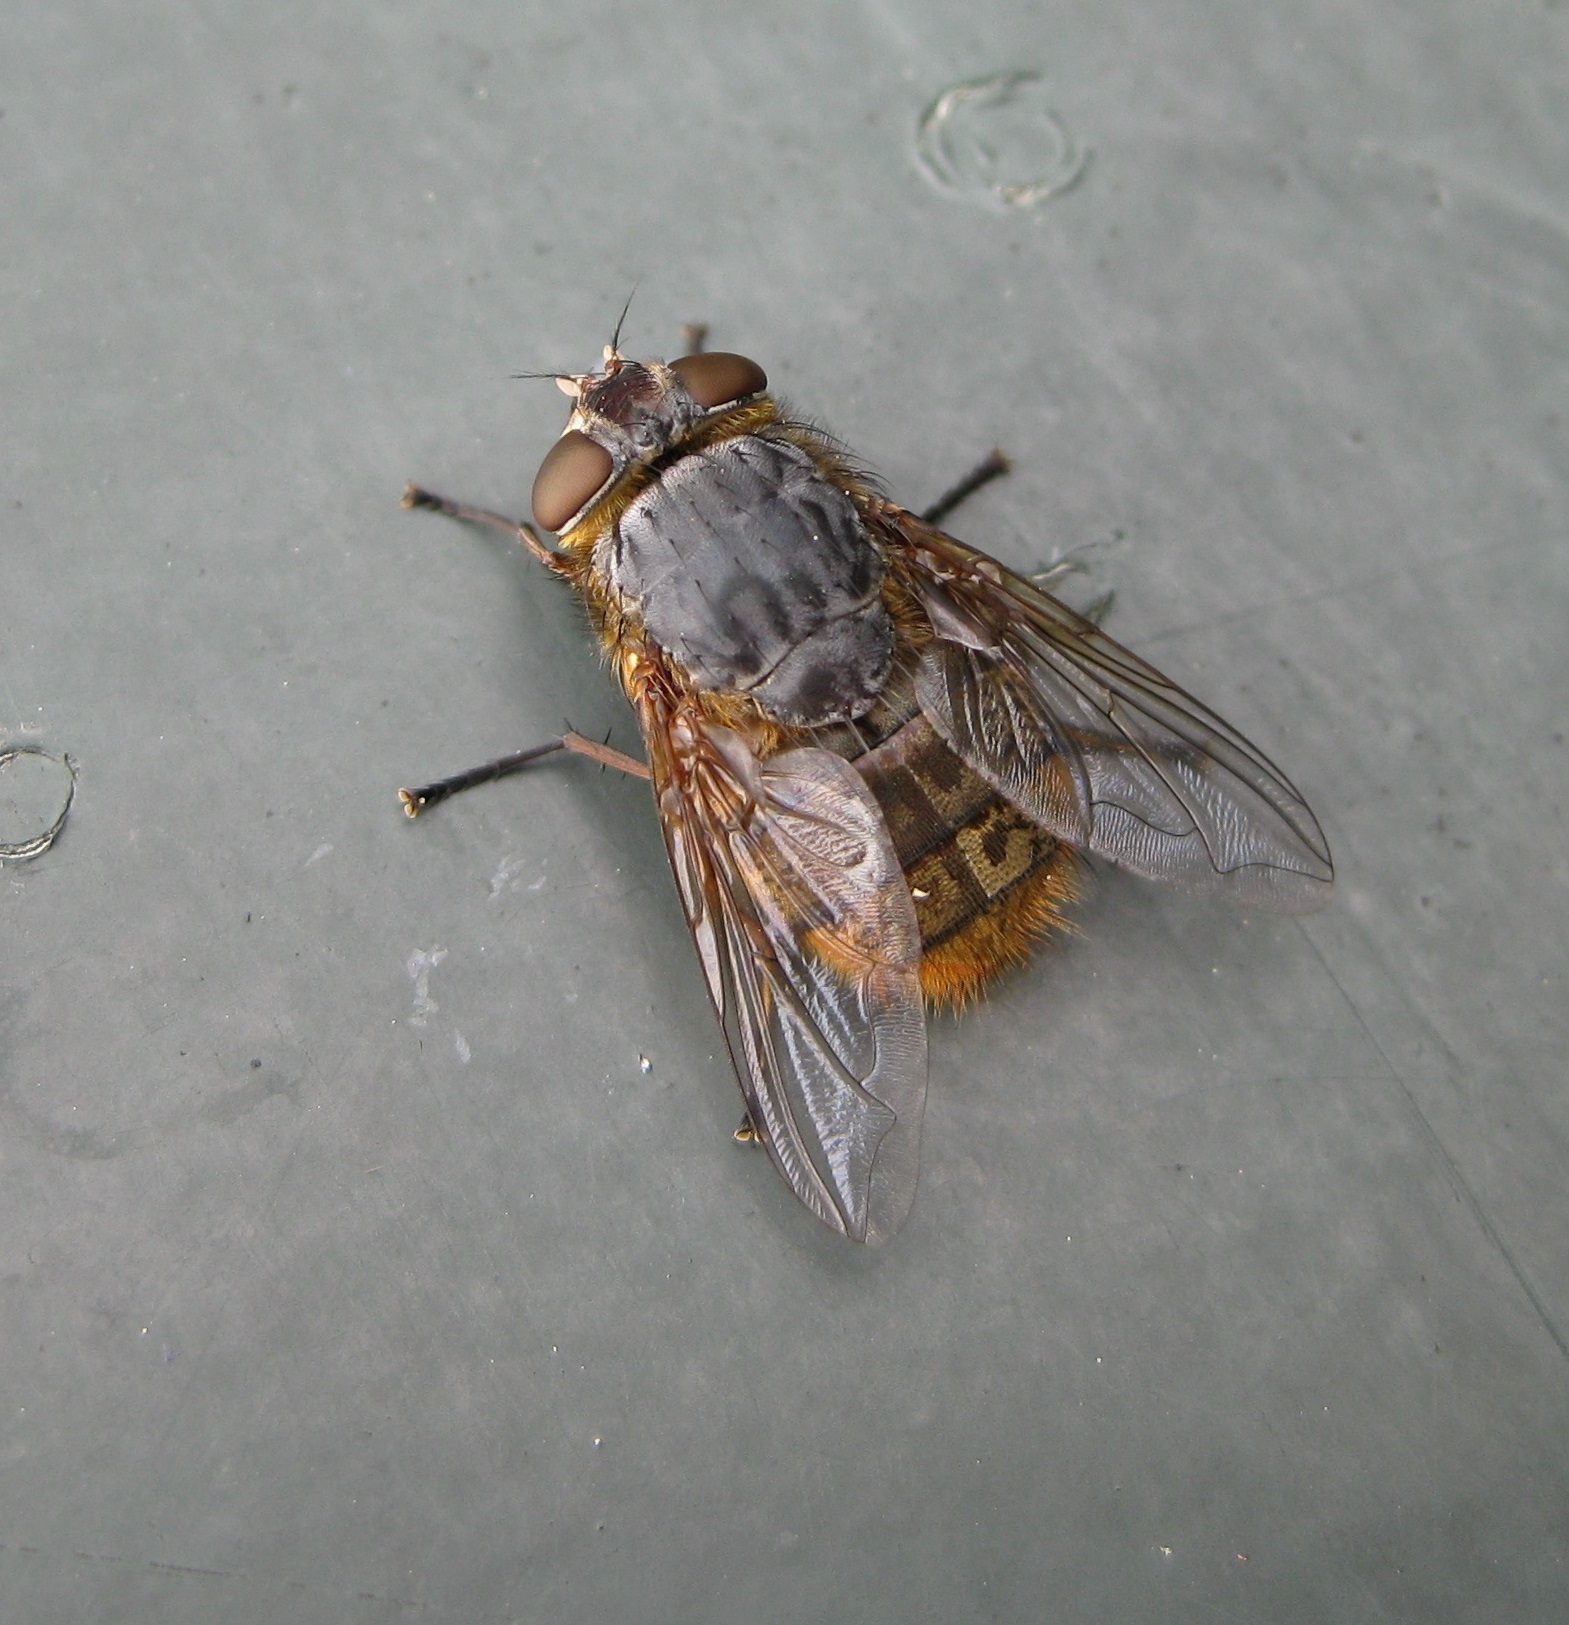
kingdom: Animalia
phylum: Arthropoda
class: Insecta
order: Diptera
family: Calliphoridae
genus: Calliphora
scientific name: Calliphora stygia
